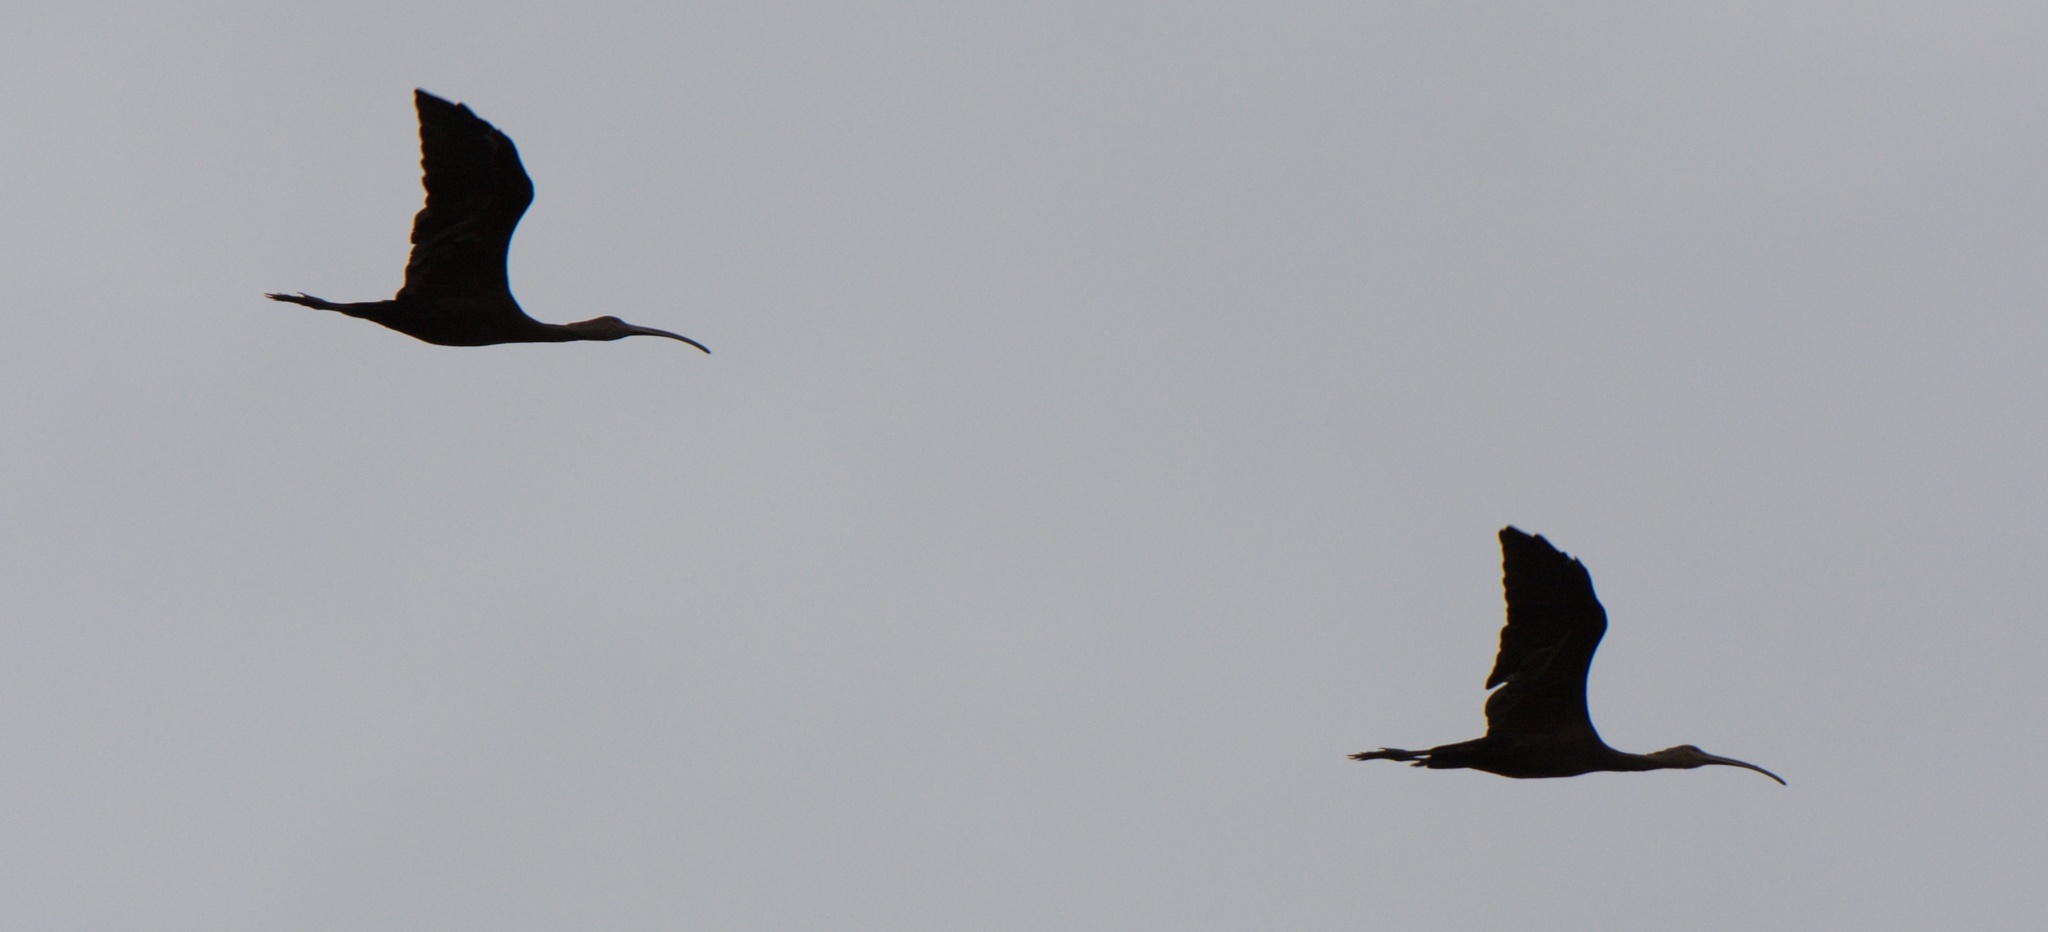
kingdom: Animalia
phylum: Chordata
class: Aves
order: Pelecaniformes
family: Threskiornithidae
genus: Plegadis
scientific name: Plegadis chihi
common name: White-faced ibis
